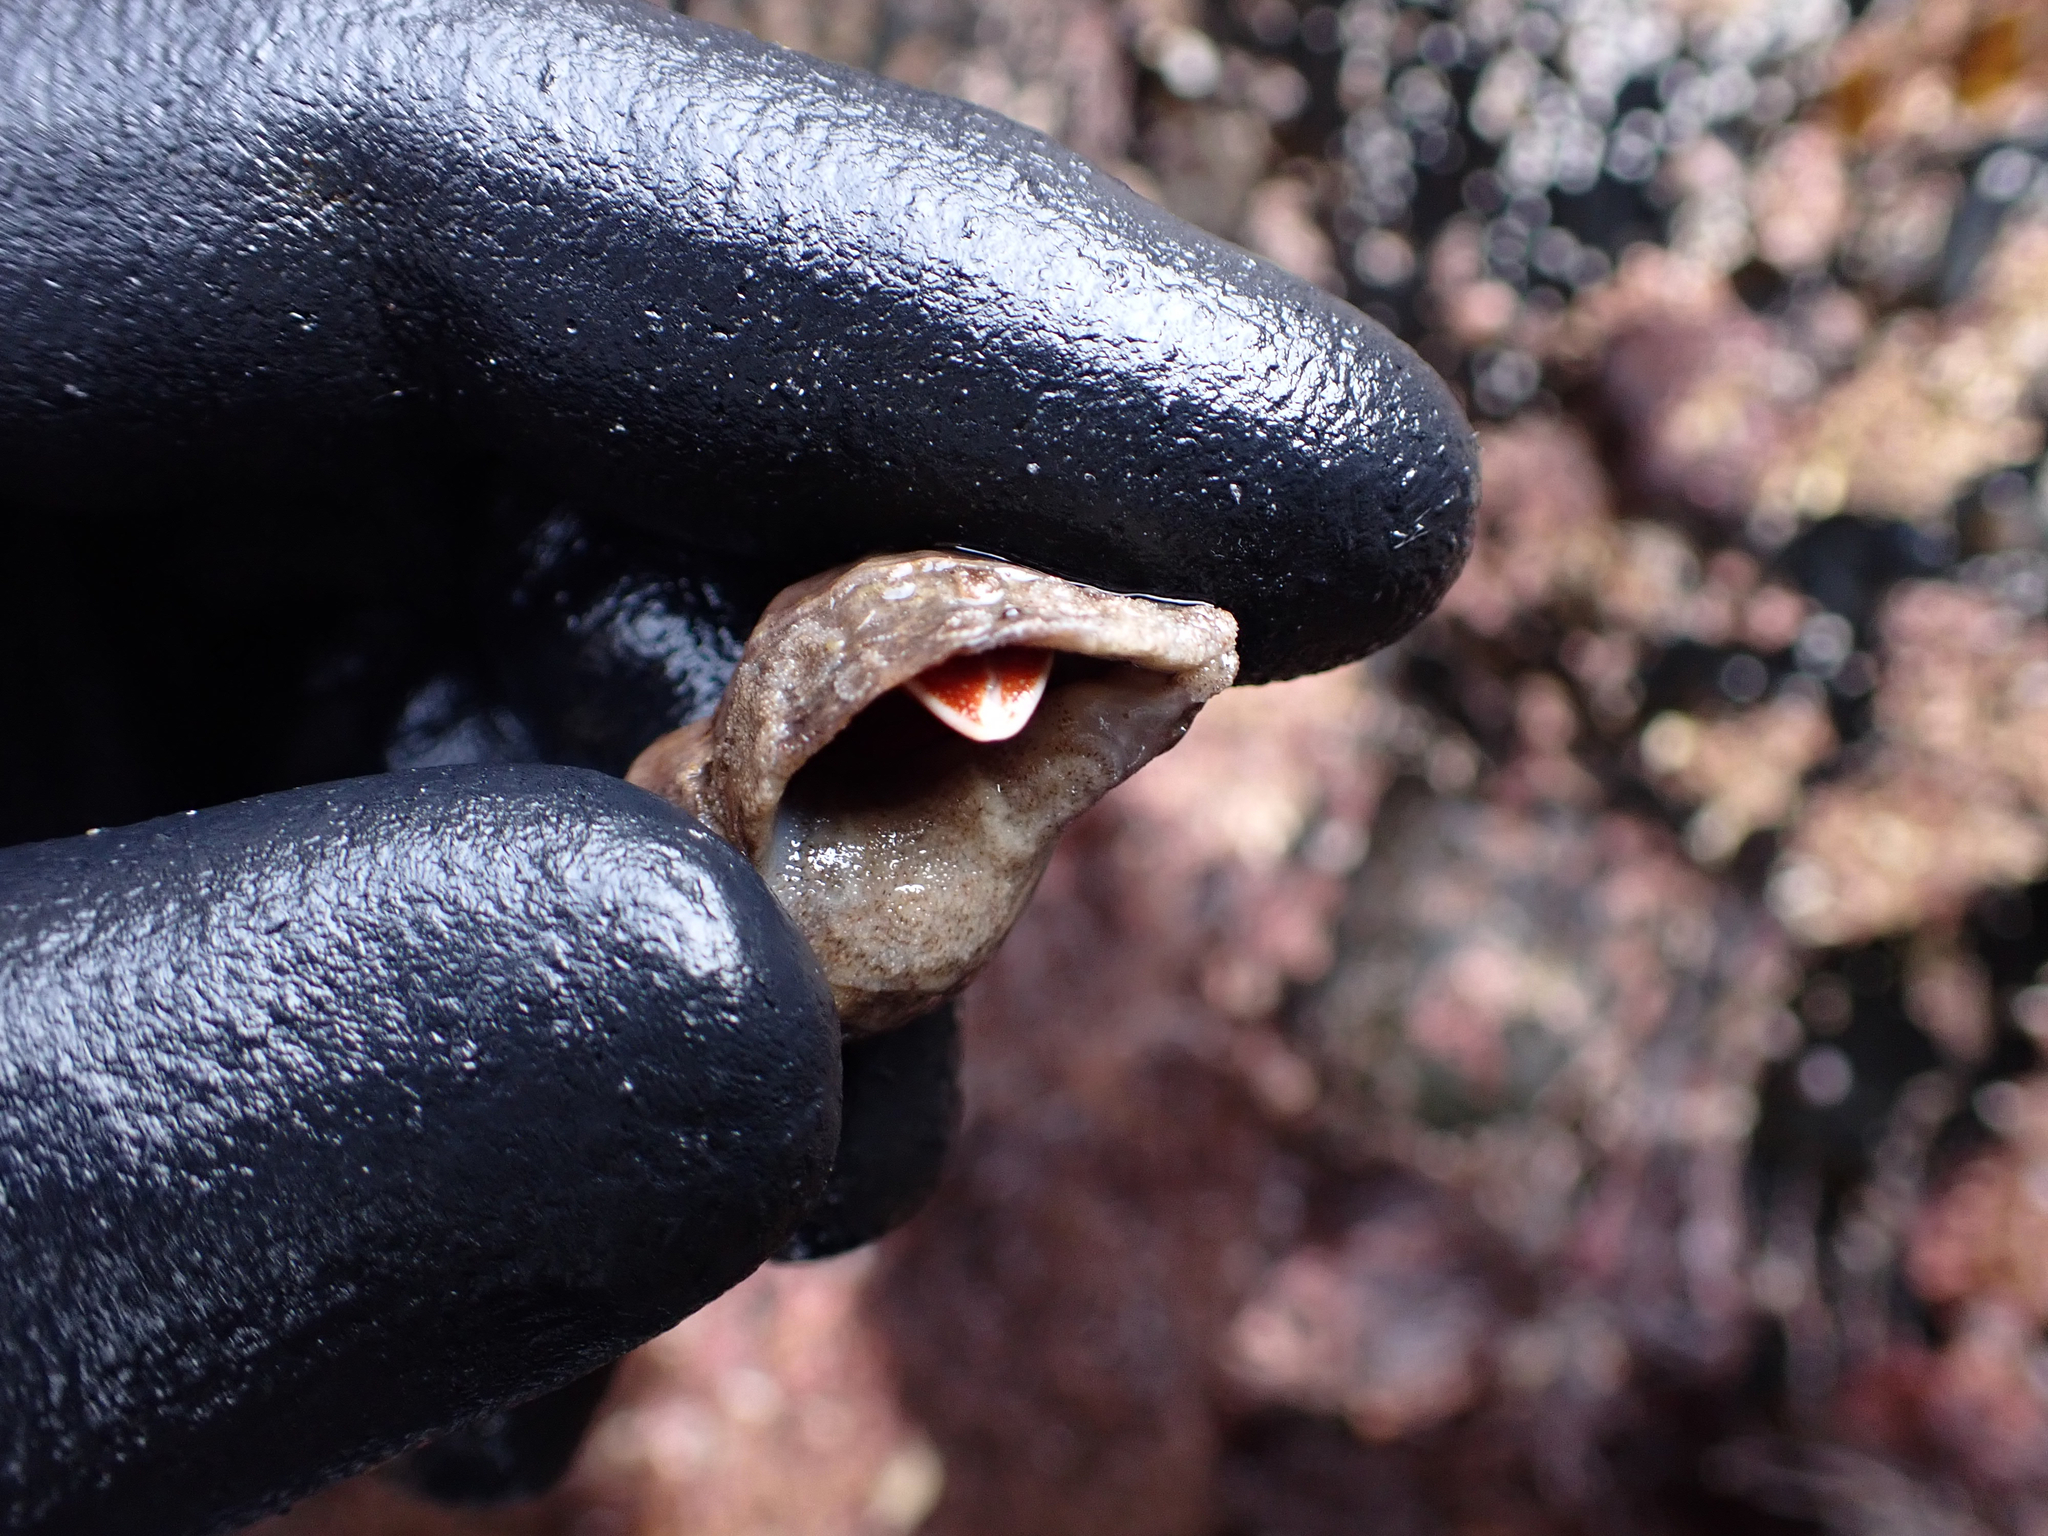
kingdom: Animalia
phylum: Arthropoda
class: Malacostraca
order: Decapoda
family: Paguridae
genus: Elassochirus
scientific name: Elassochirus gilli
